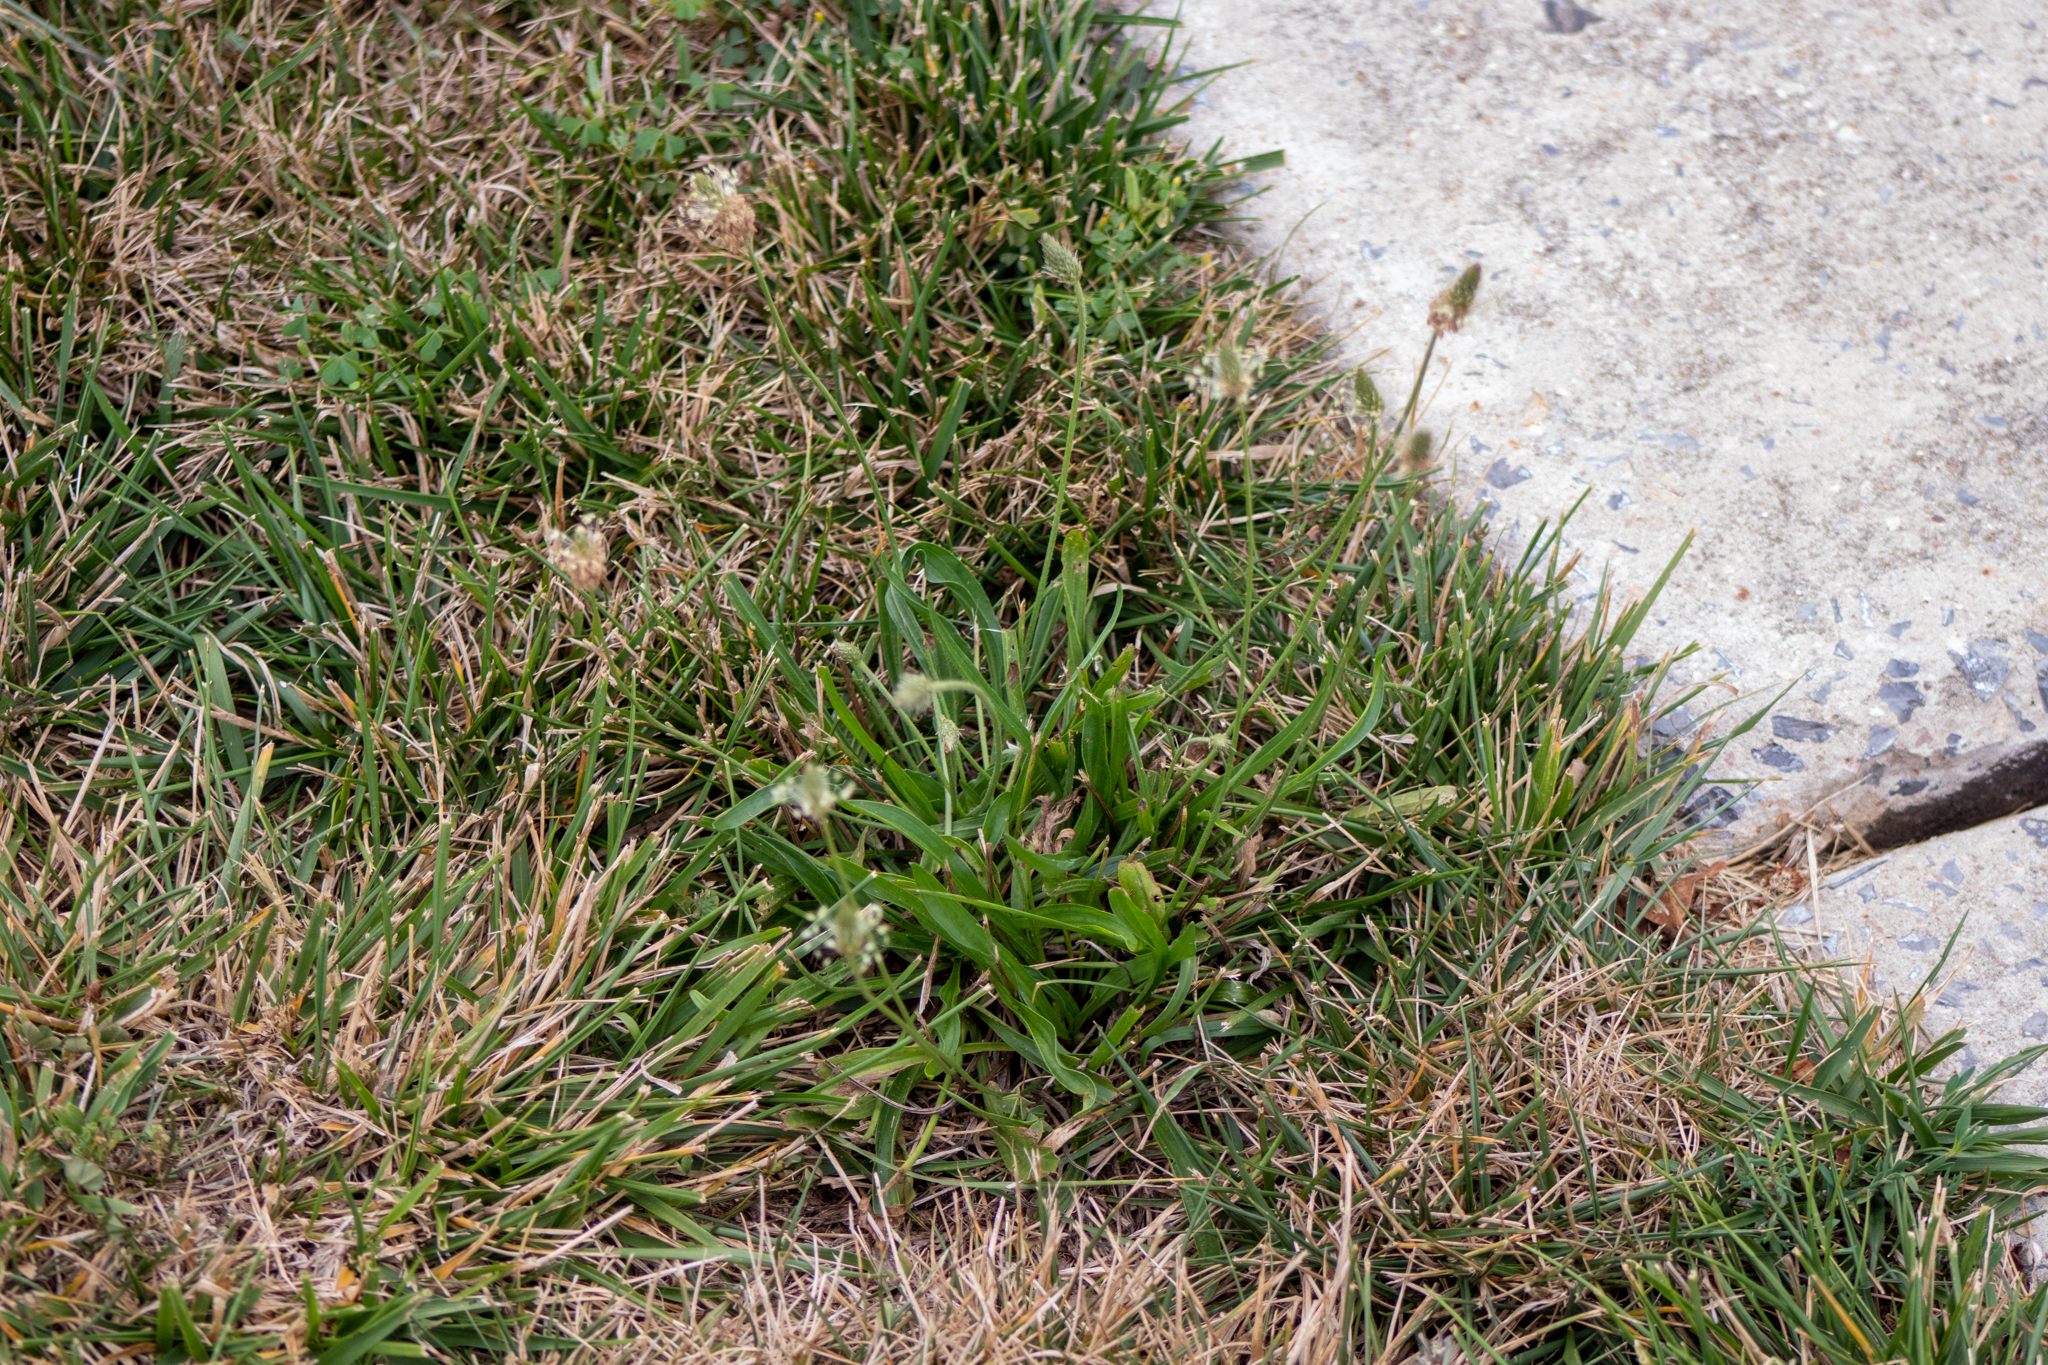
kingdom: Plantae
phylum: Tracheophyta
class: Magnoliopsida
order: Lamiales
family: Plantaginaceae
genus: Plantago
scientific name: Plantago lanceolata
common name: Ribwort plantain
